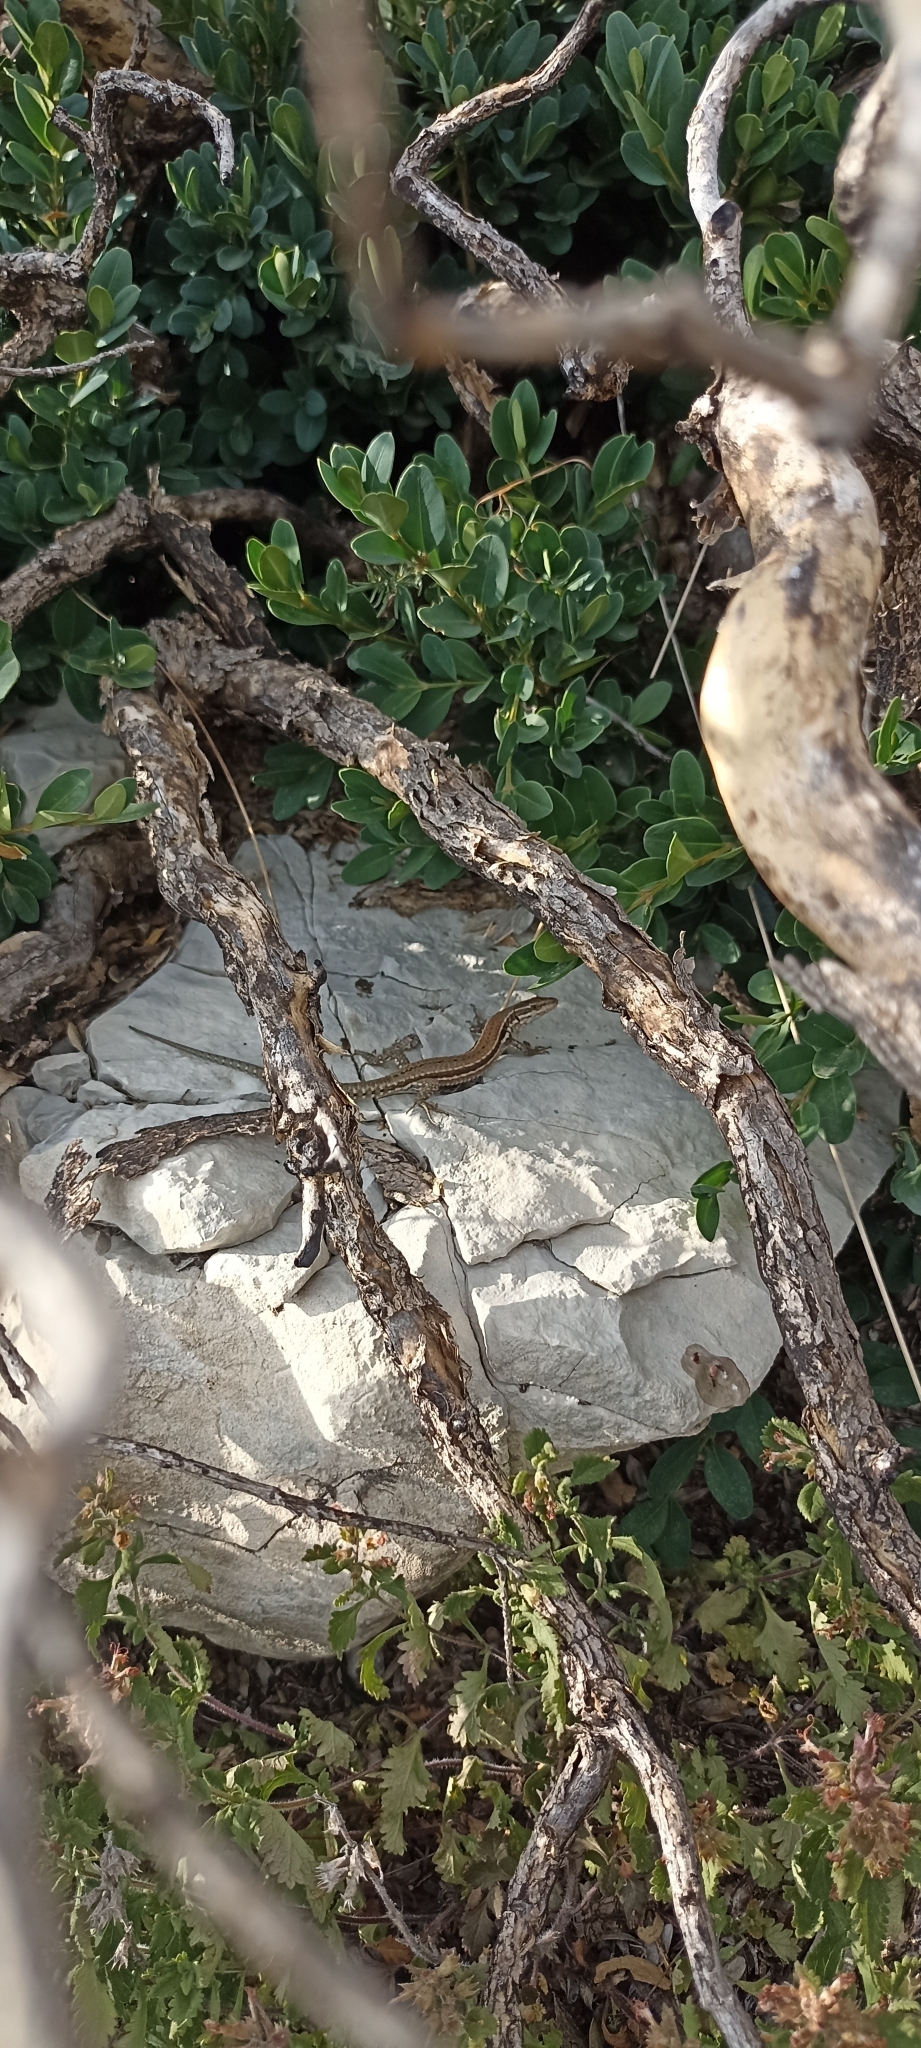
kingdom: Animalia
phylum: Chordata
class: Squamata
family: Lacertidae
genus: Podarcis
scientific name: Podarcis muralis
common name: Common wall lizard
